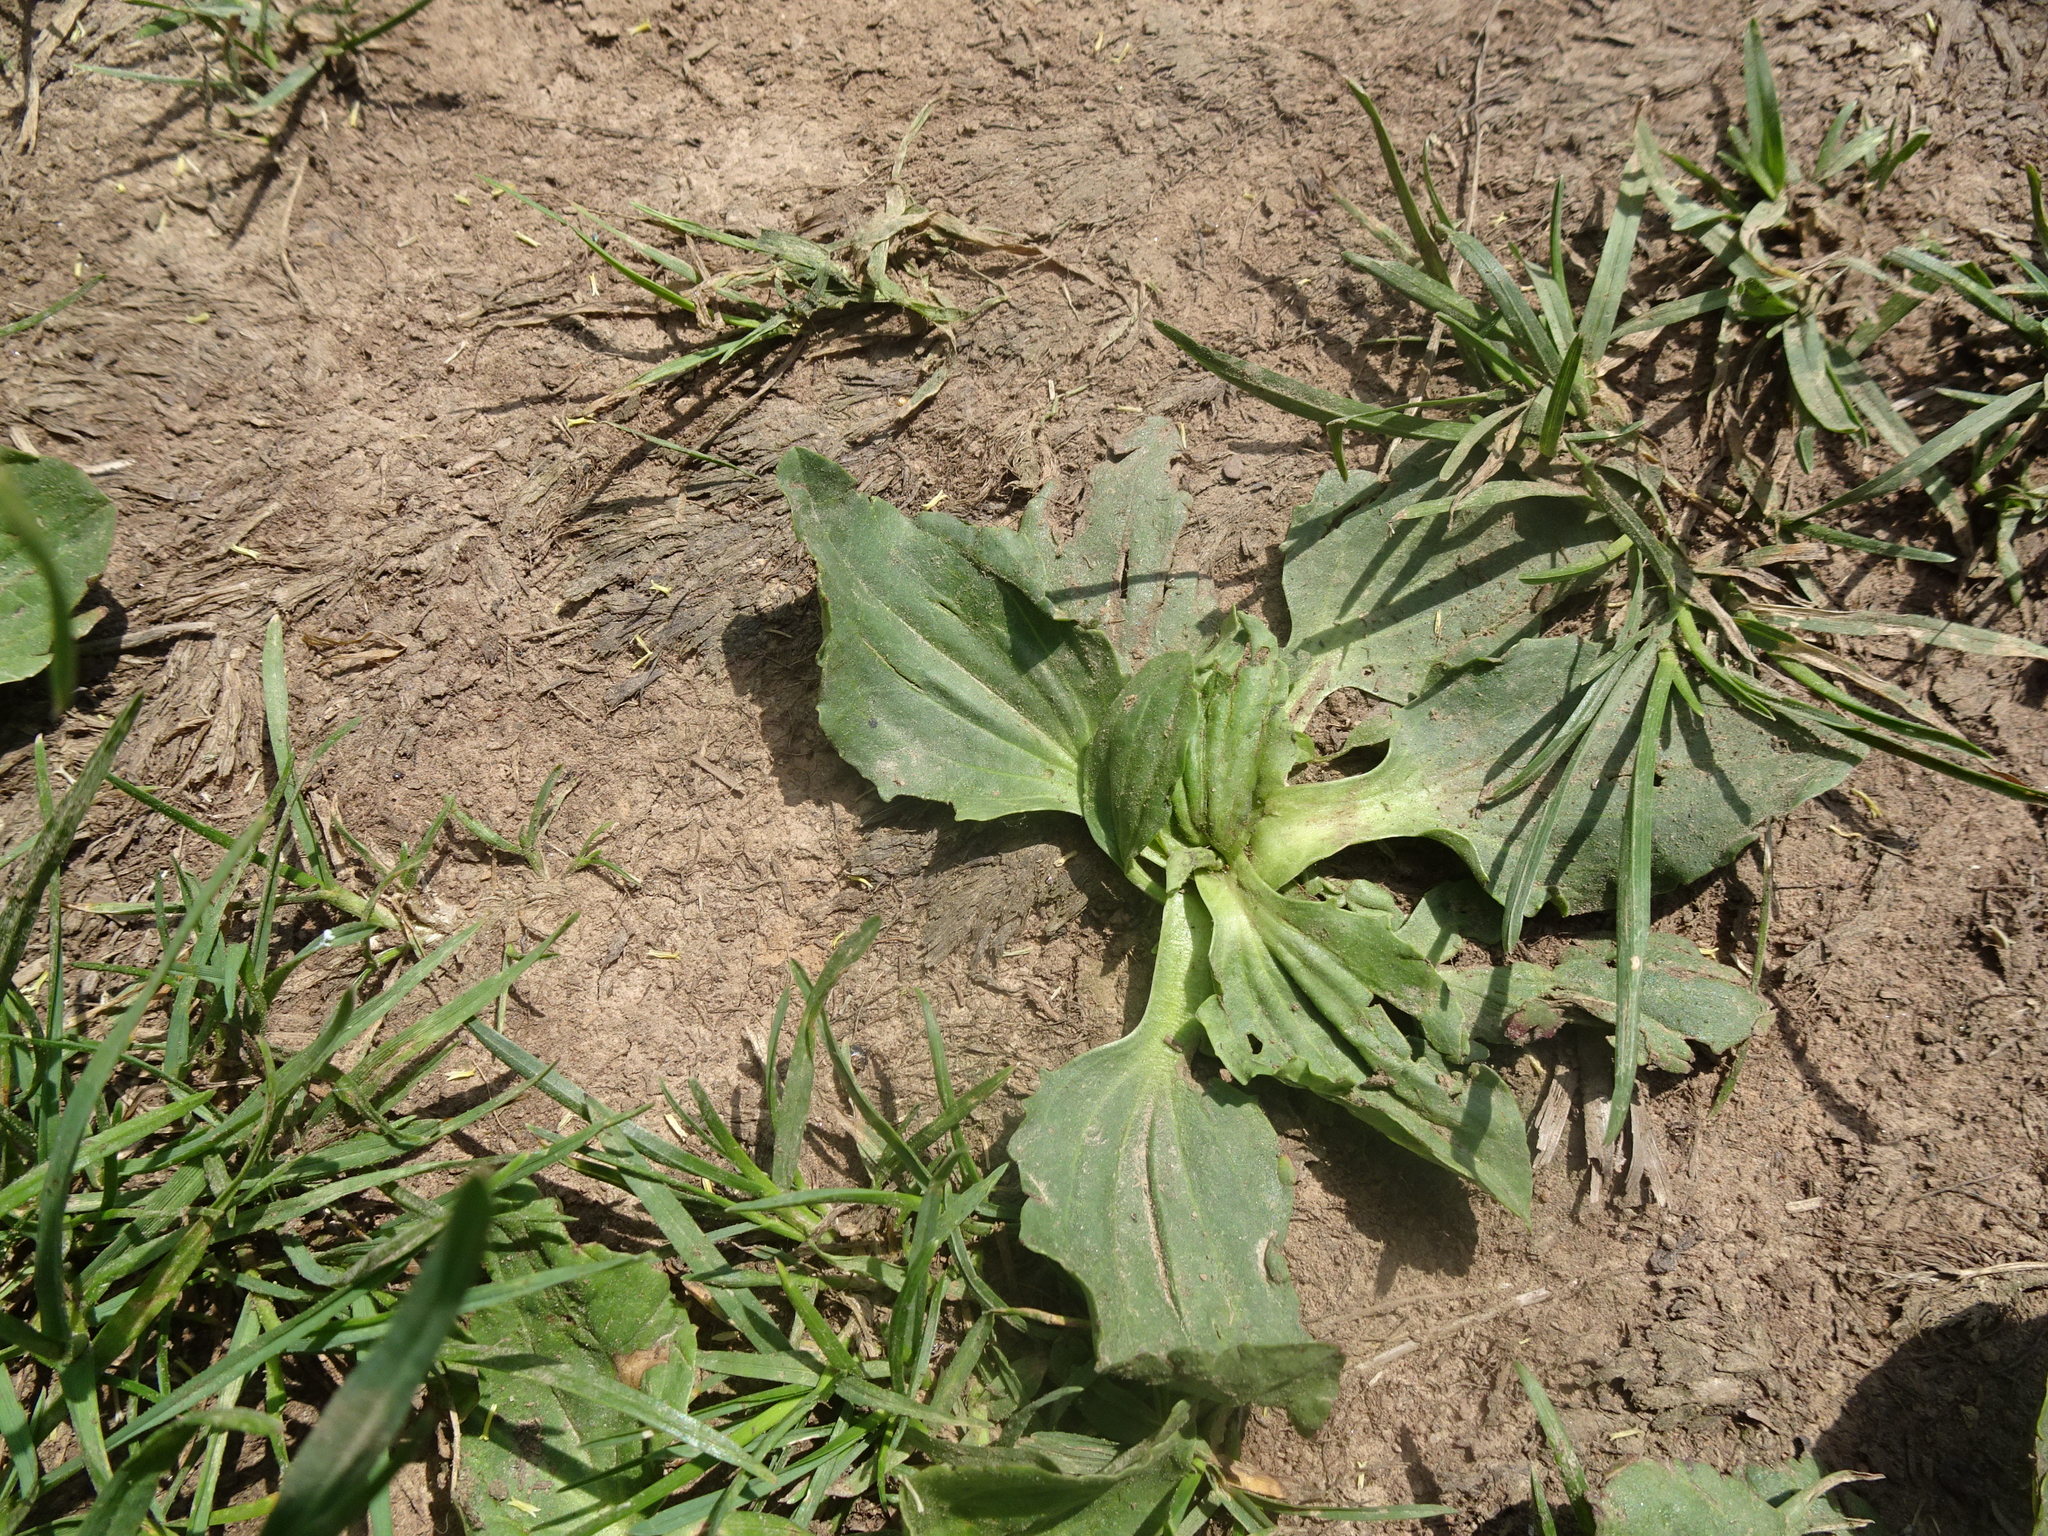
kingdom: Plantae
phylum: Tracheophyta
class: Magnoliopsida
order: Lamiales
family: Plantaginaceae
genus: Plantago
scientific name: Plantago major
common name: Common plantain
